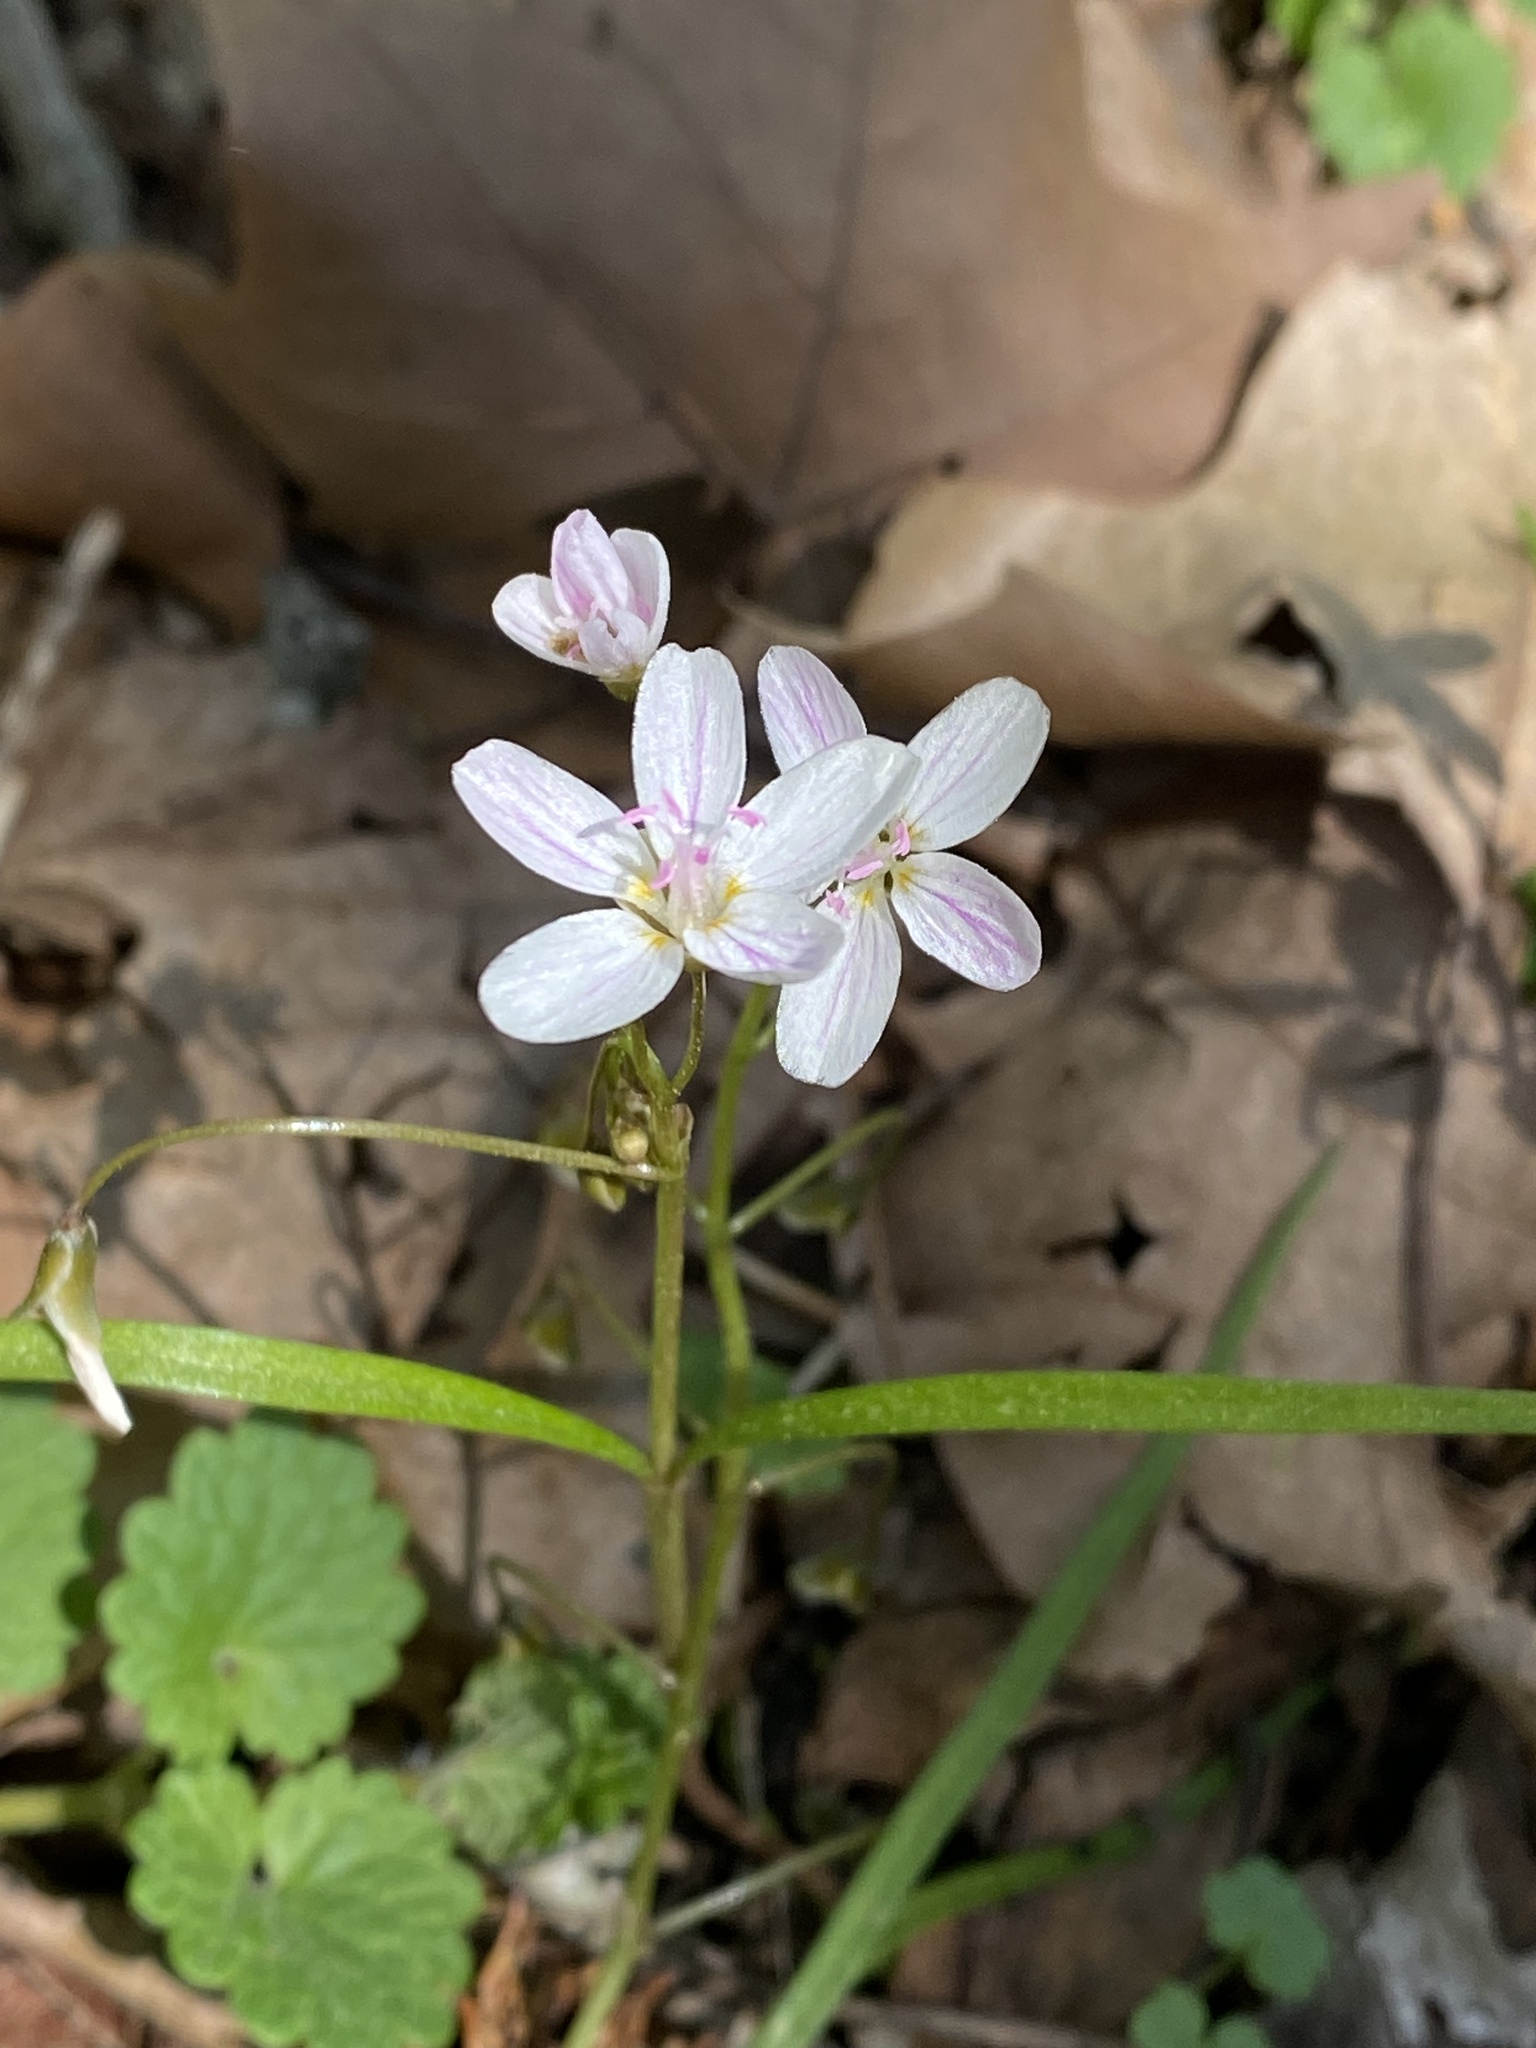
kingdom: Plantae
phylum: Tracheophyta
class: Magnoliopsida
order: Caryophyllales
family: Montiaceae
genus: Claytonia
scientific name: Claytonia virginica
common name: Virginia springbeauty
